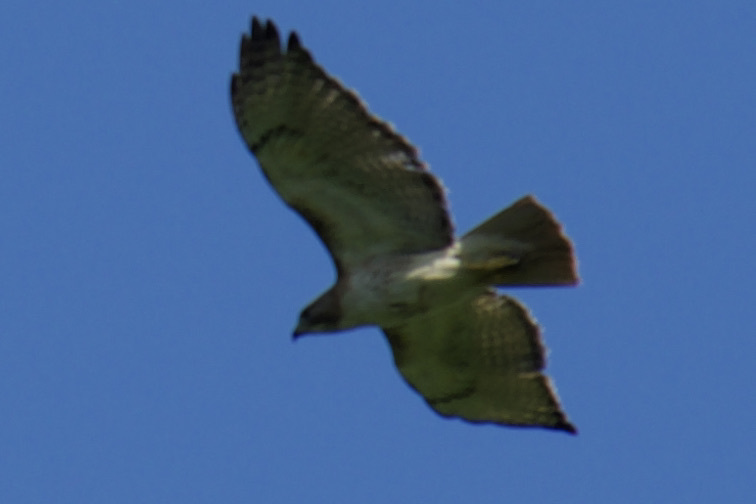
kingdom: Animalia
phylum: Chordata
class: Aves
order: Accipitriformes
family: Accipitridae
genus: Buteo
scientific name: Buteo jamaicensis
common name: Red-tailed hawk
